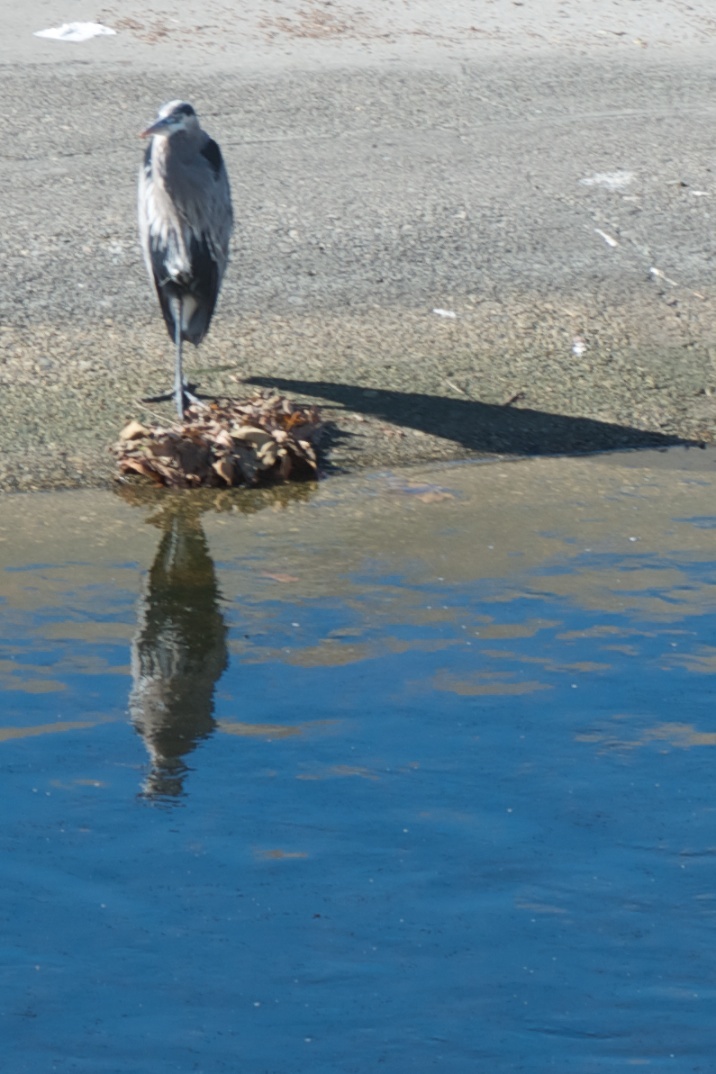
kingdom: Animalia
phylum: Chordata
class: Aves
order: Pelecaniformes
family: Ardeidae
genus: Ardea
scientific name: Ardea herodias
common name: Great blue heron
